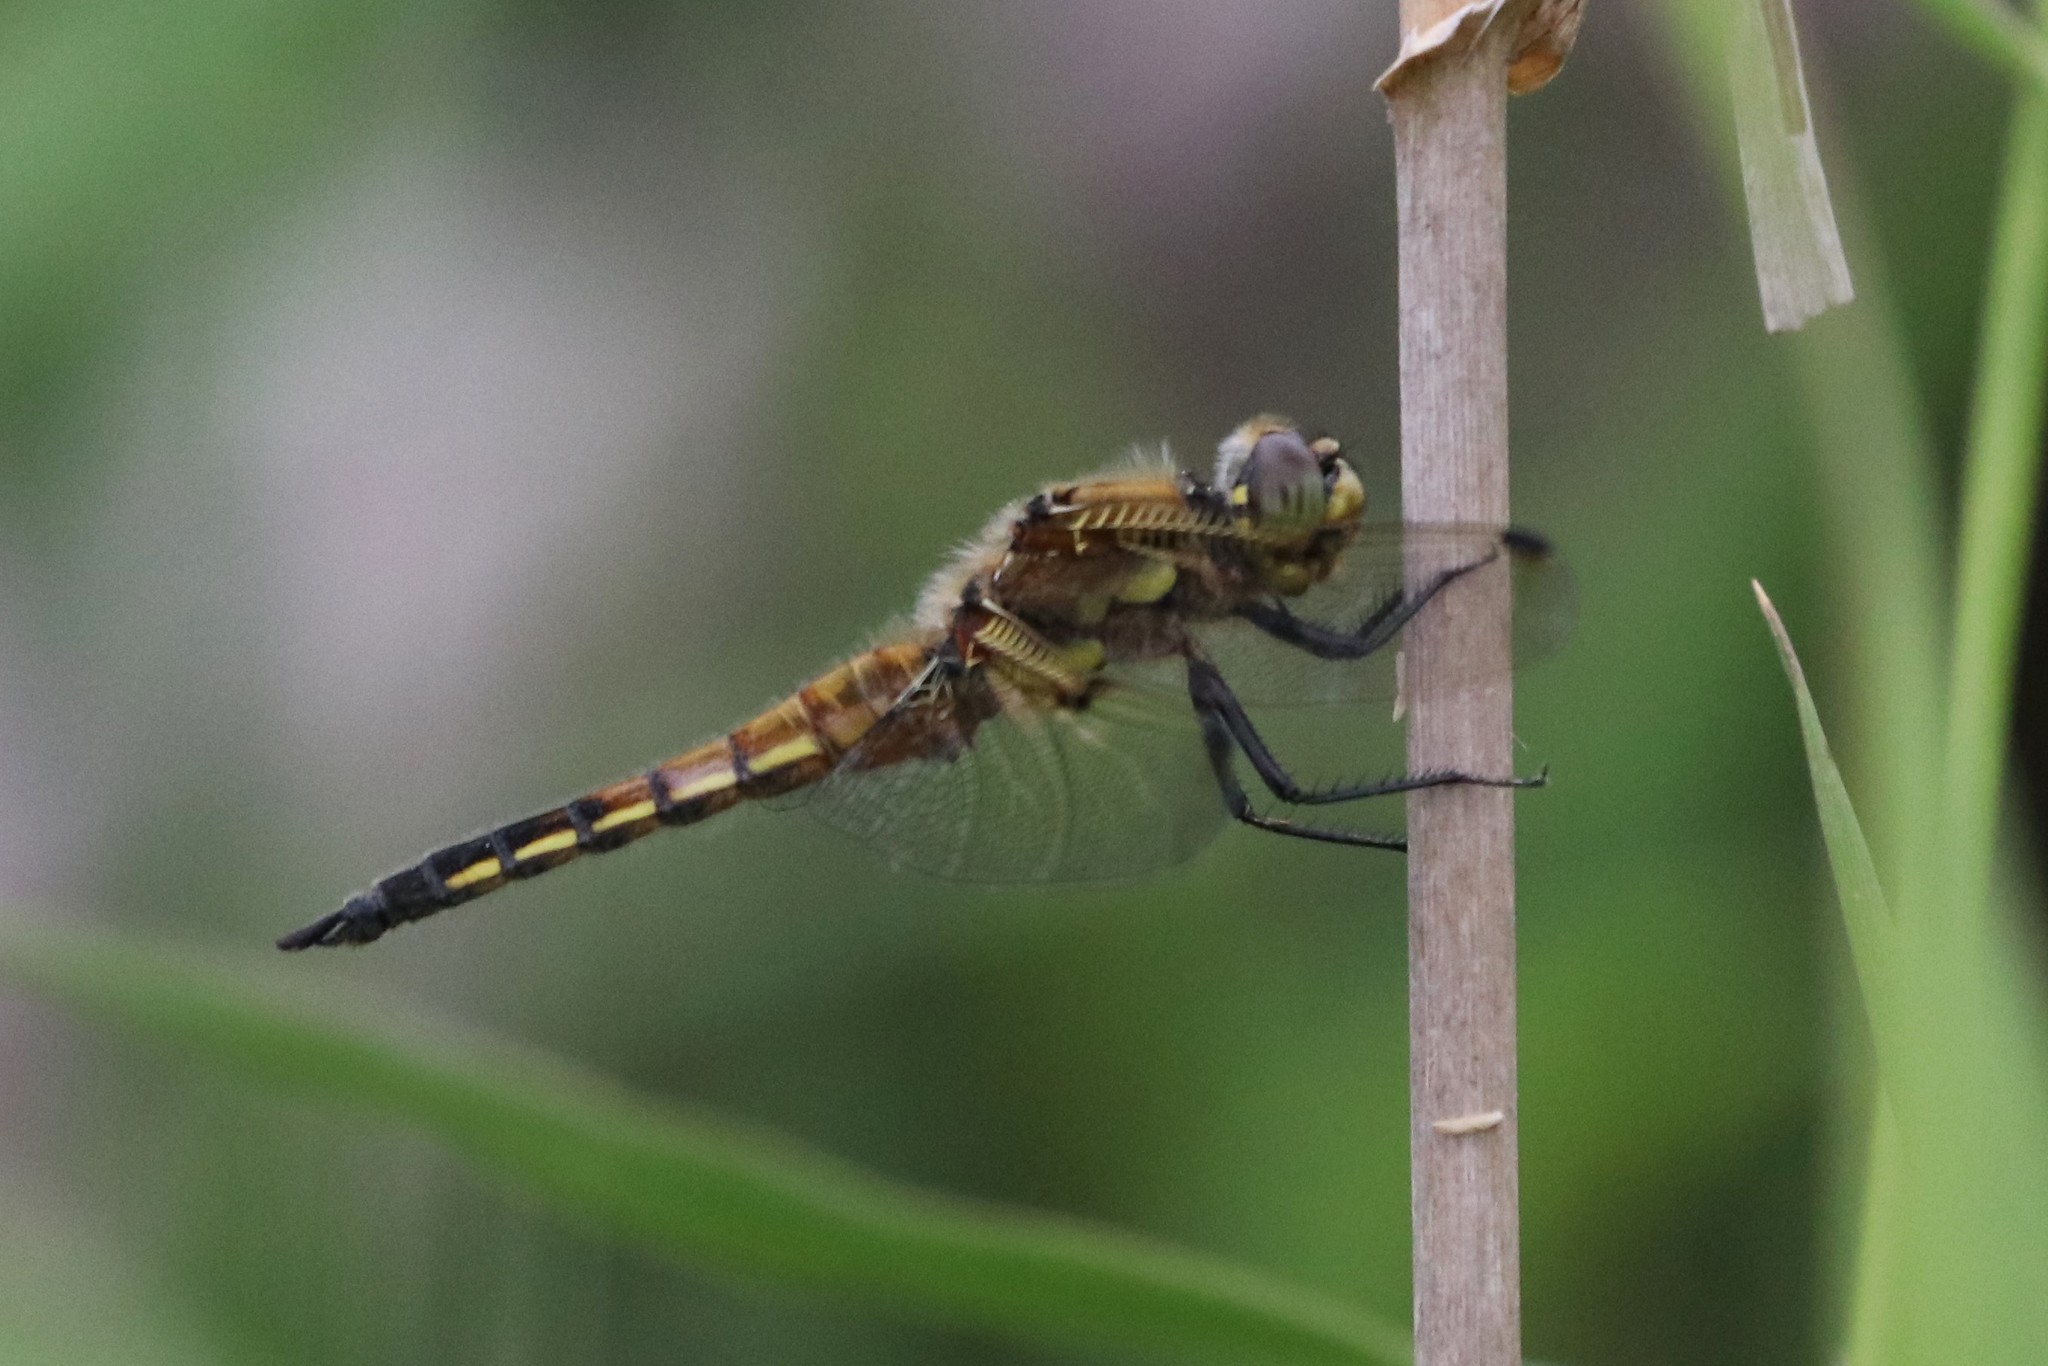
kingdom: Animalia
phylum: Arthropoda
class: Insecta
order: Odonata
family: Libellulidae
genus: Libellula
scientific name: Libellula quadrimaculata
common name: Four-spotted chaser
